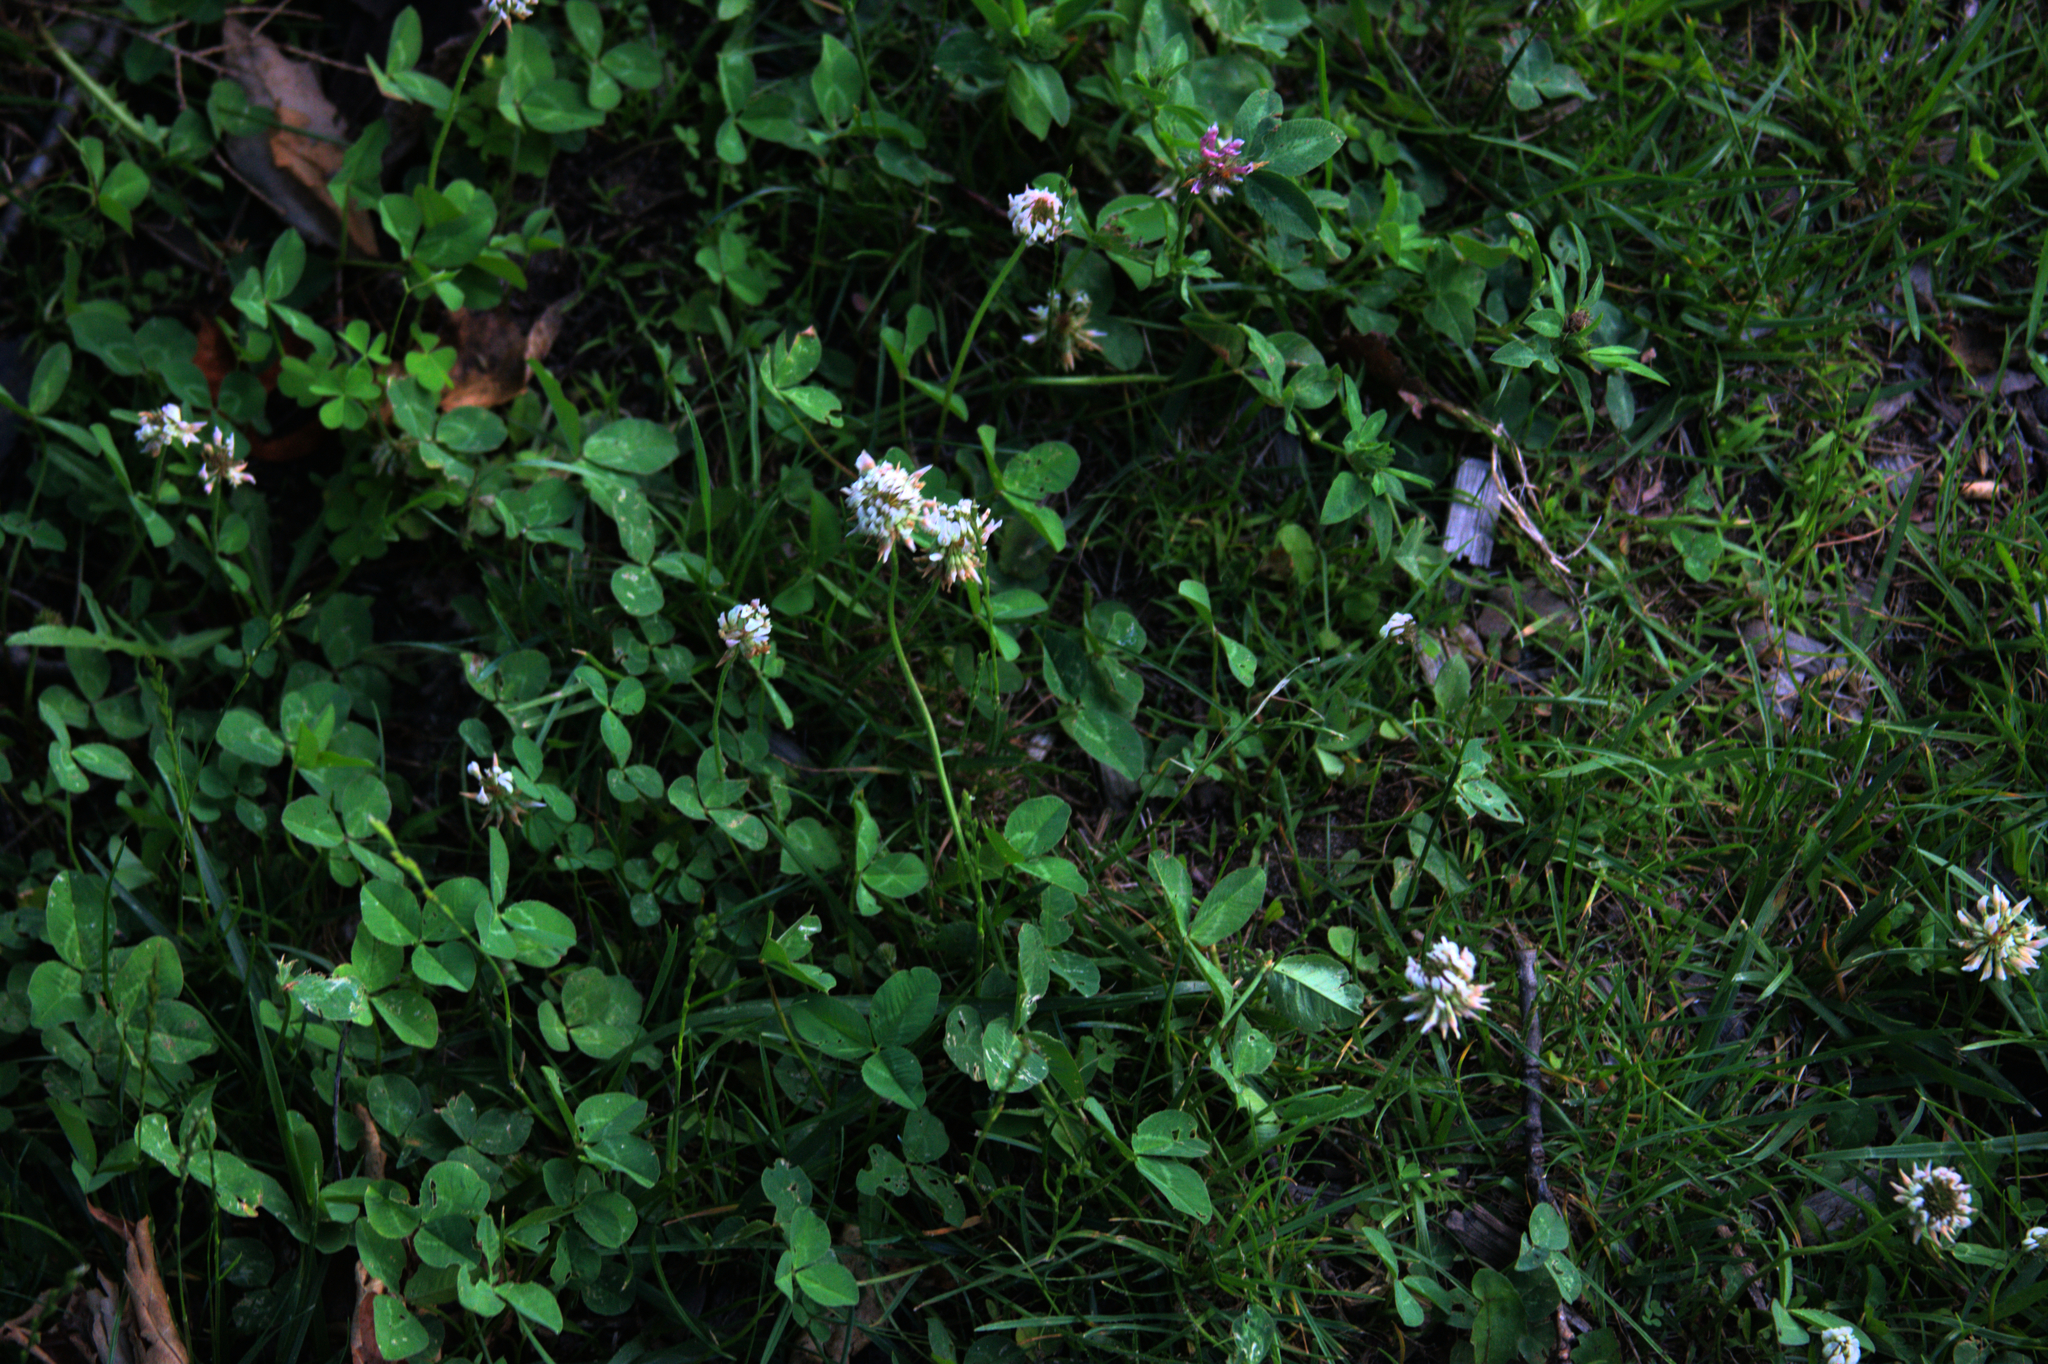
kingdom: Plantae
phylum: Tracheophyta
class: Magnoliopsida
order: Fabales
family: Fabaceae
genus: Trifolium
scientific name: Trifolium repens
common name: White clover
